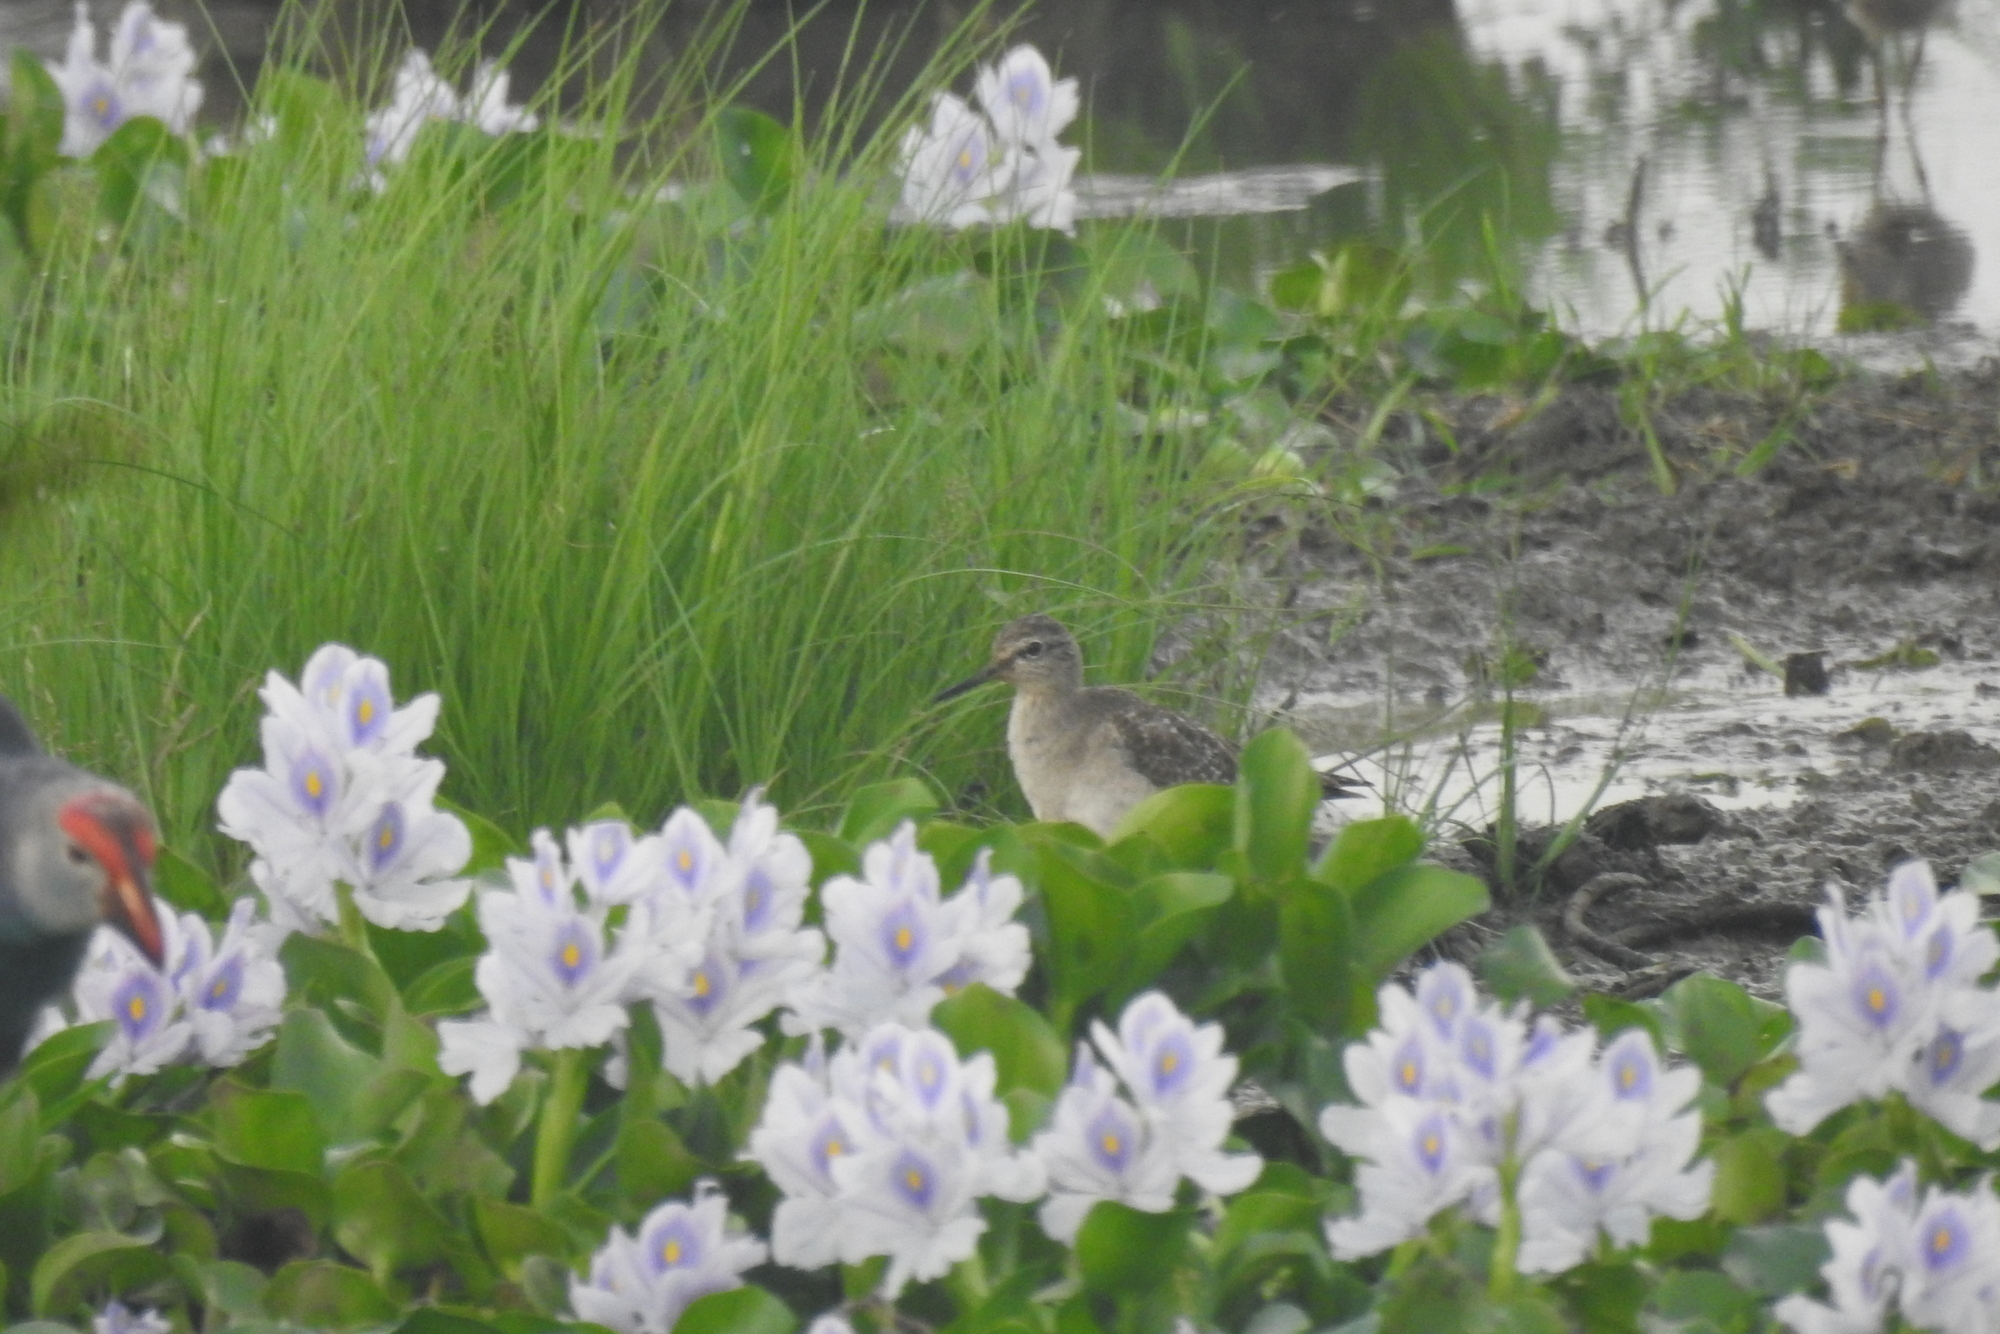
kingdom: Animalia
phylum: Chordata
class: Aves
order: Charadriiformes
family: Scolopacidae
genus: Tringa
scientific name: Tringa glareola
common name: Wood sandpiper
